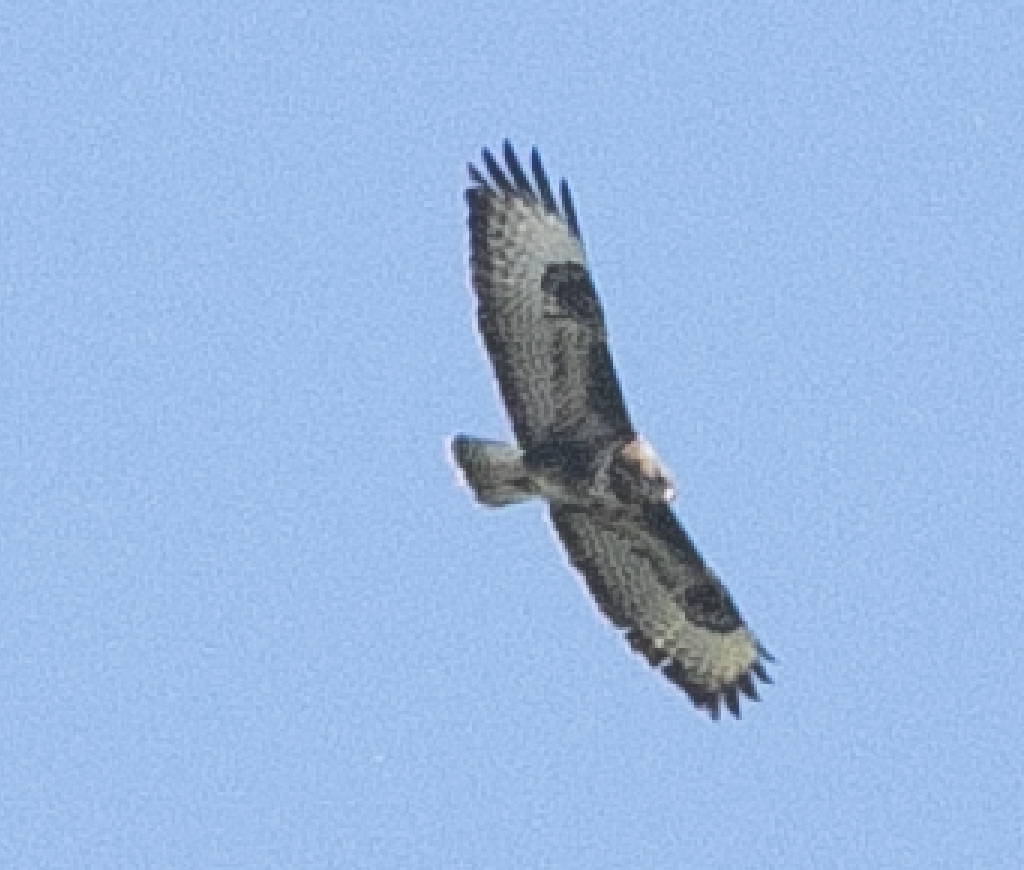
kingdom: Animalia
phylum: Chordata
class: Aves
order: Accipitriformes
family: Accipitridae
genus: Buteo
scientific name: Buteo buteo
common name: Common buzzard
